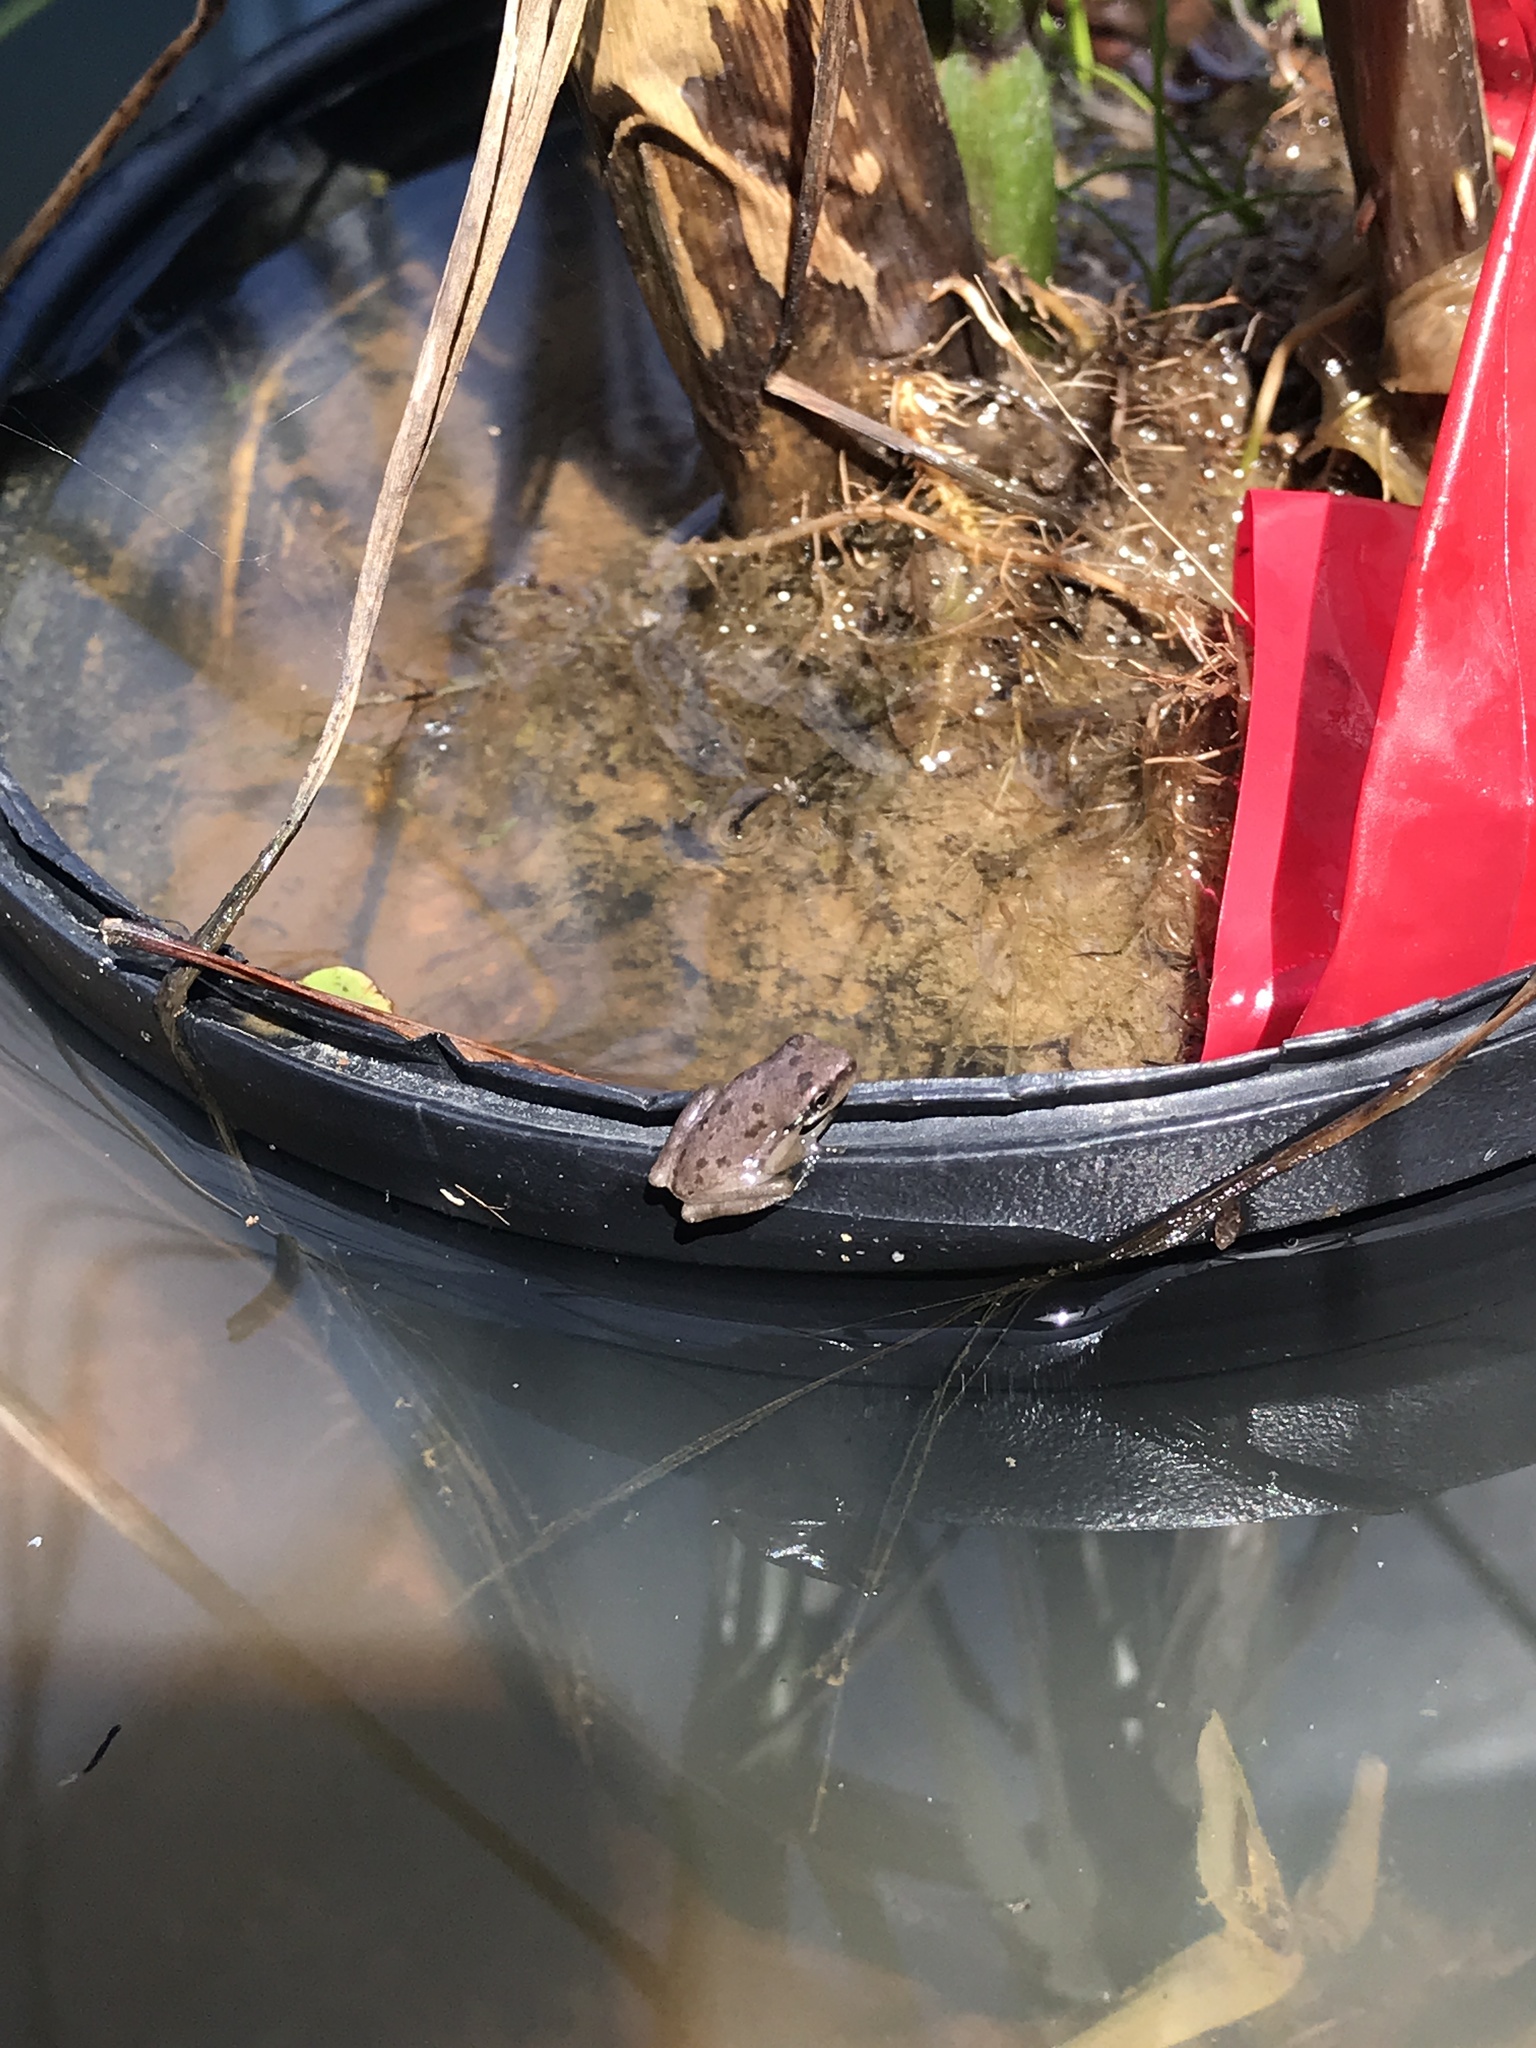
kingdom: Animalia
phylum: Chordata
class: Amphibia
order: Anura
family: Hylidae
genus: Dryophytes
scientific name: Dryophytes squirellus
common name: Squirrel treefrog
